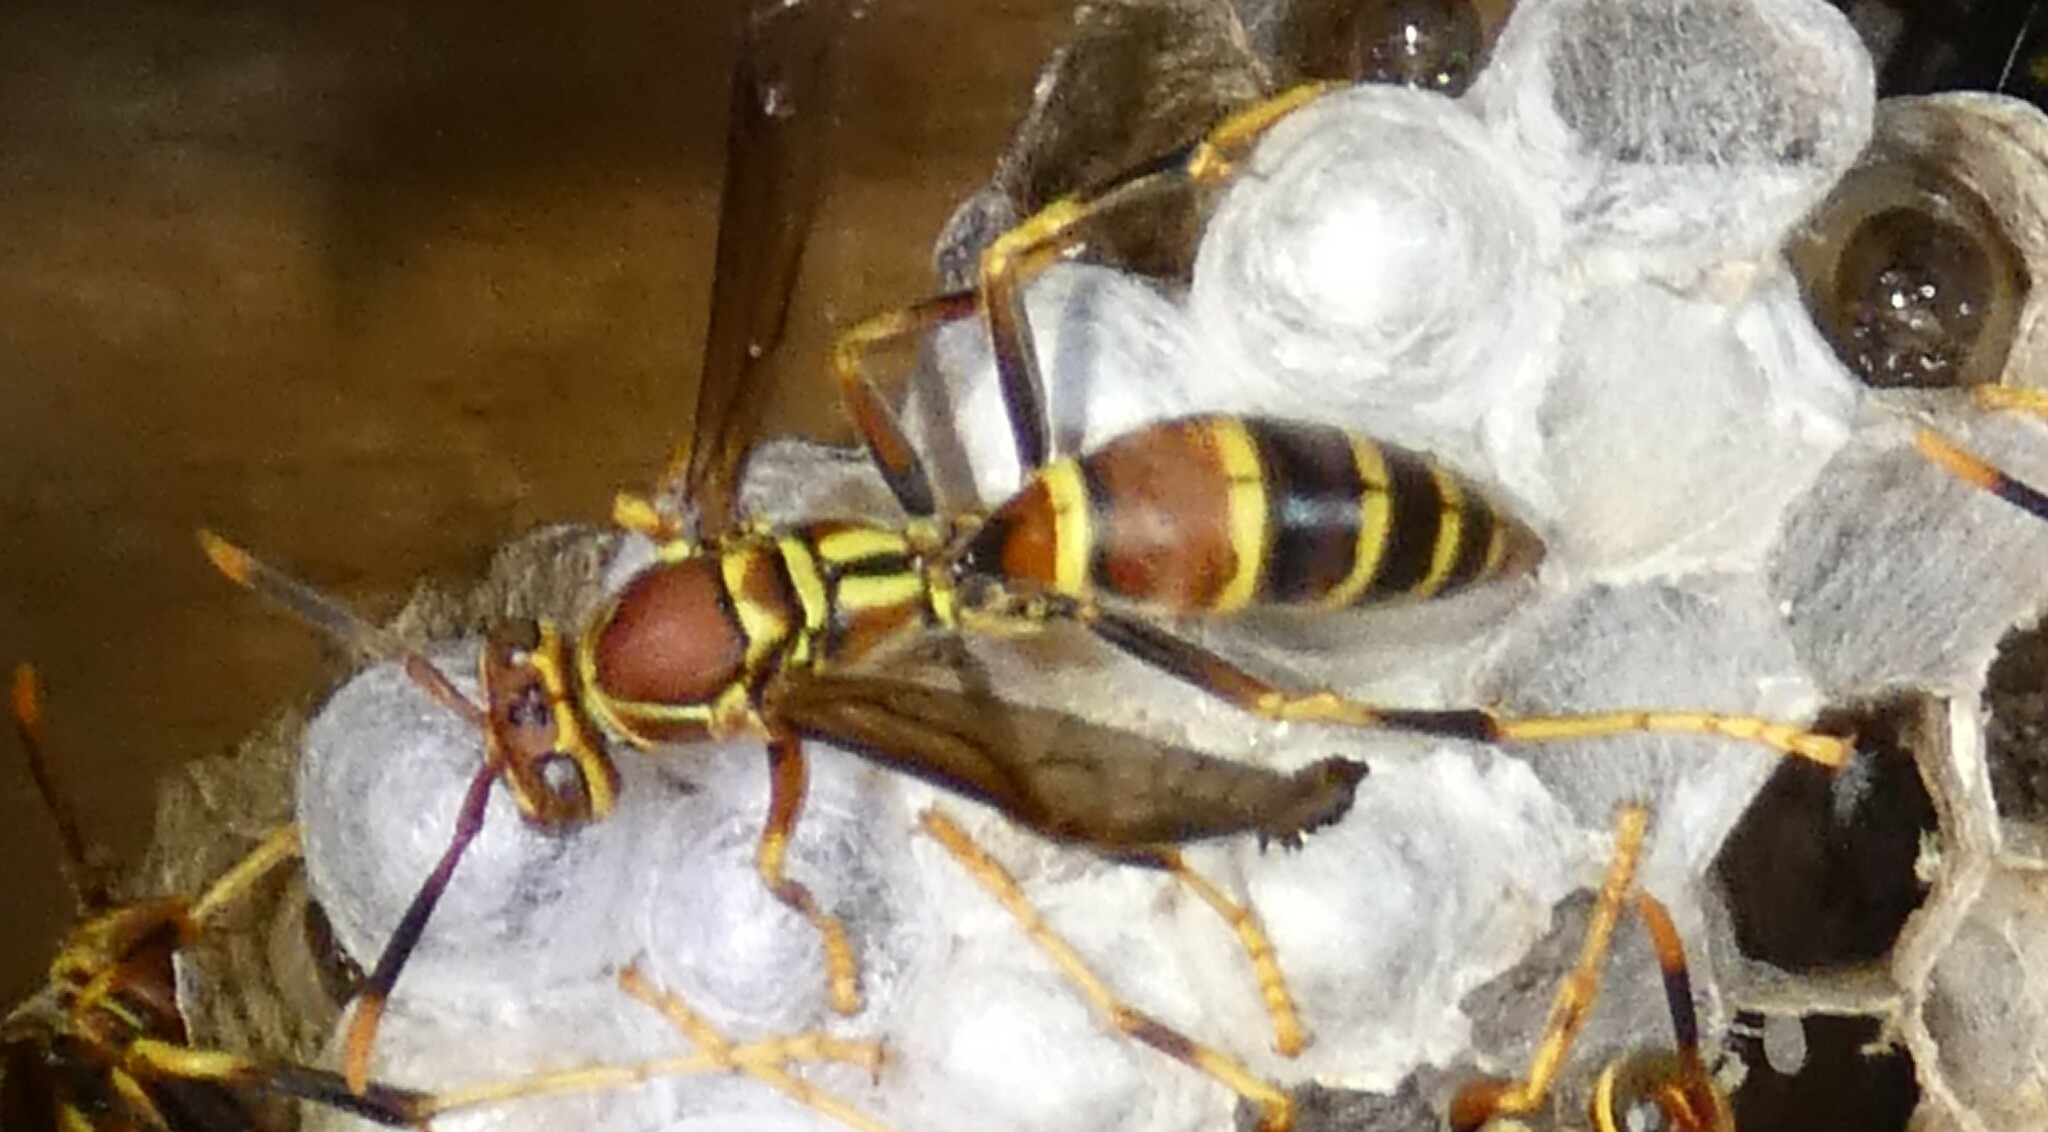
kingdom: Animalia
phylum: Arthropoda
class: Insecta
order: Hymenoptera
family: Eumenidae
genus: Polistes
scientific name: Polistes exclamans
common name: Paper wasp
